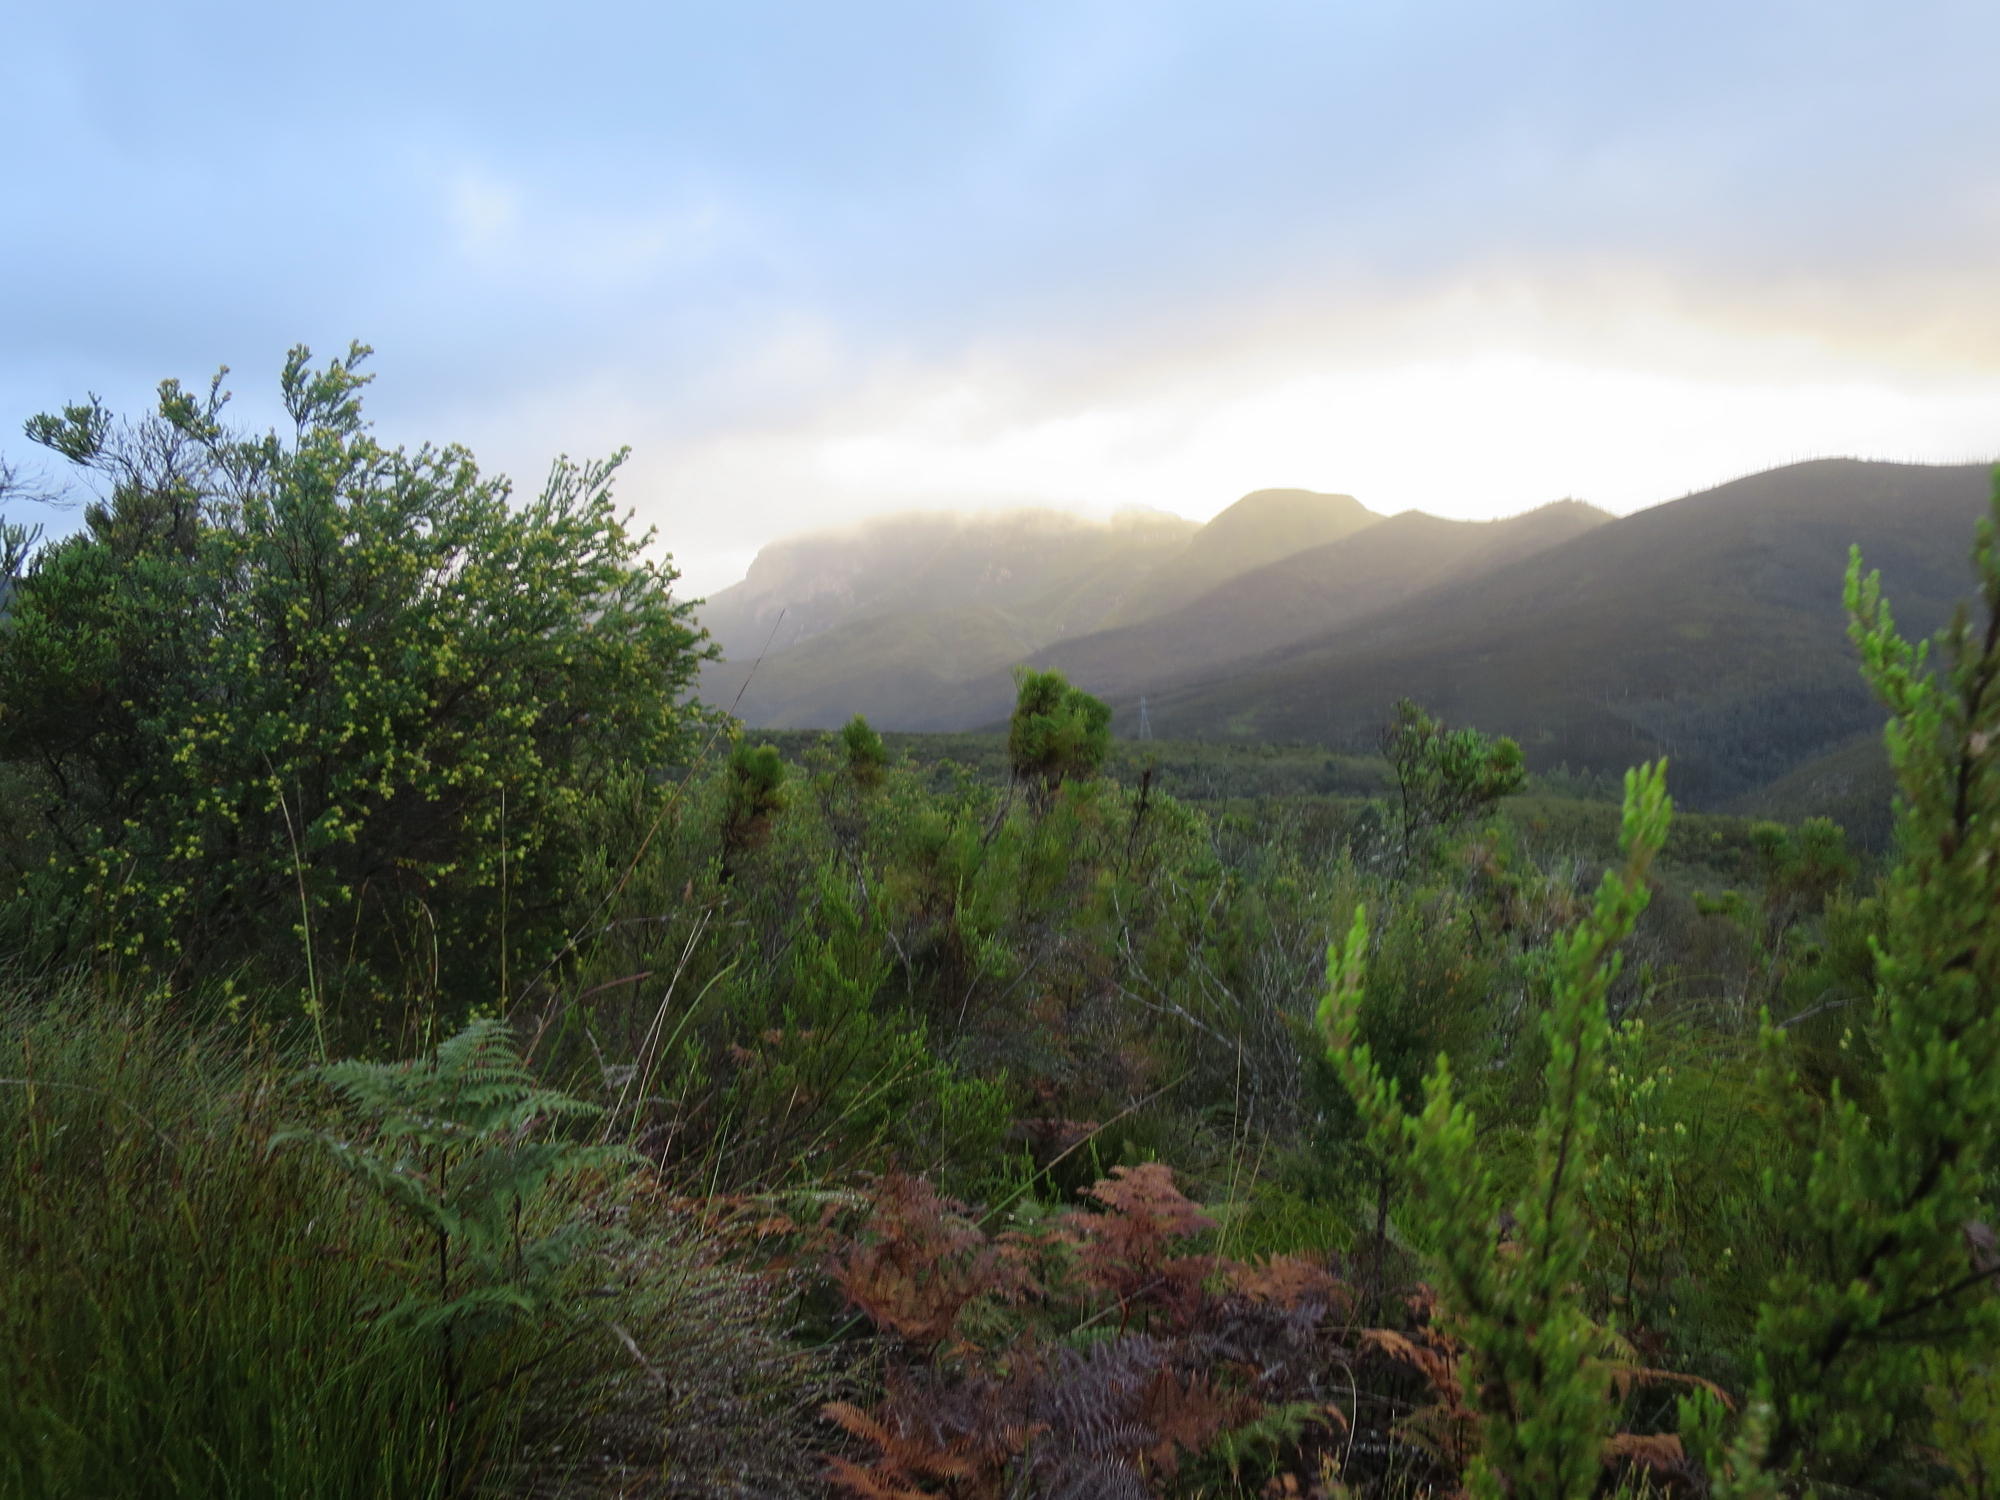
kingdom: Plantae
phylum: Tracheophyta
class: Polypodiopsida
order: Polypodiales
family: Dennstaedtiaceae
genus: Pteridium
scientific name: Pteridium aquilinum
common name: Bracken
